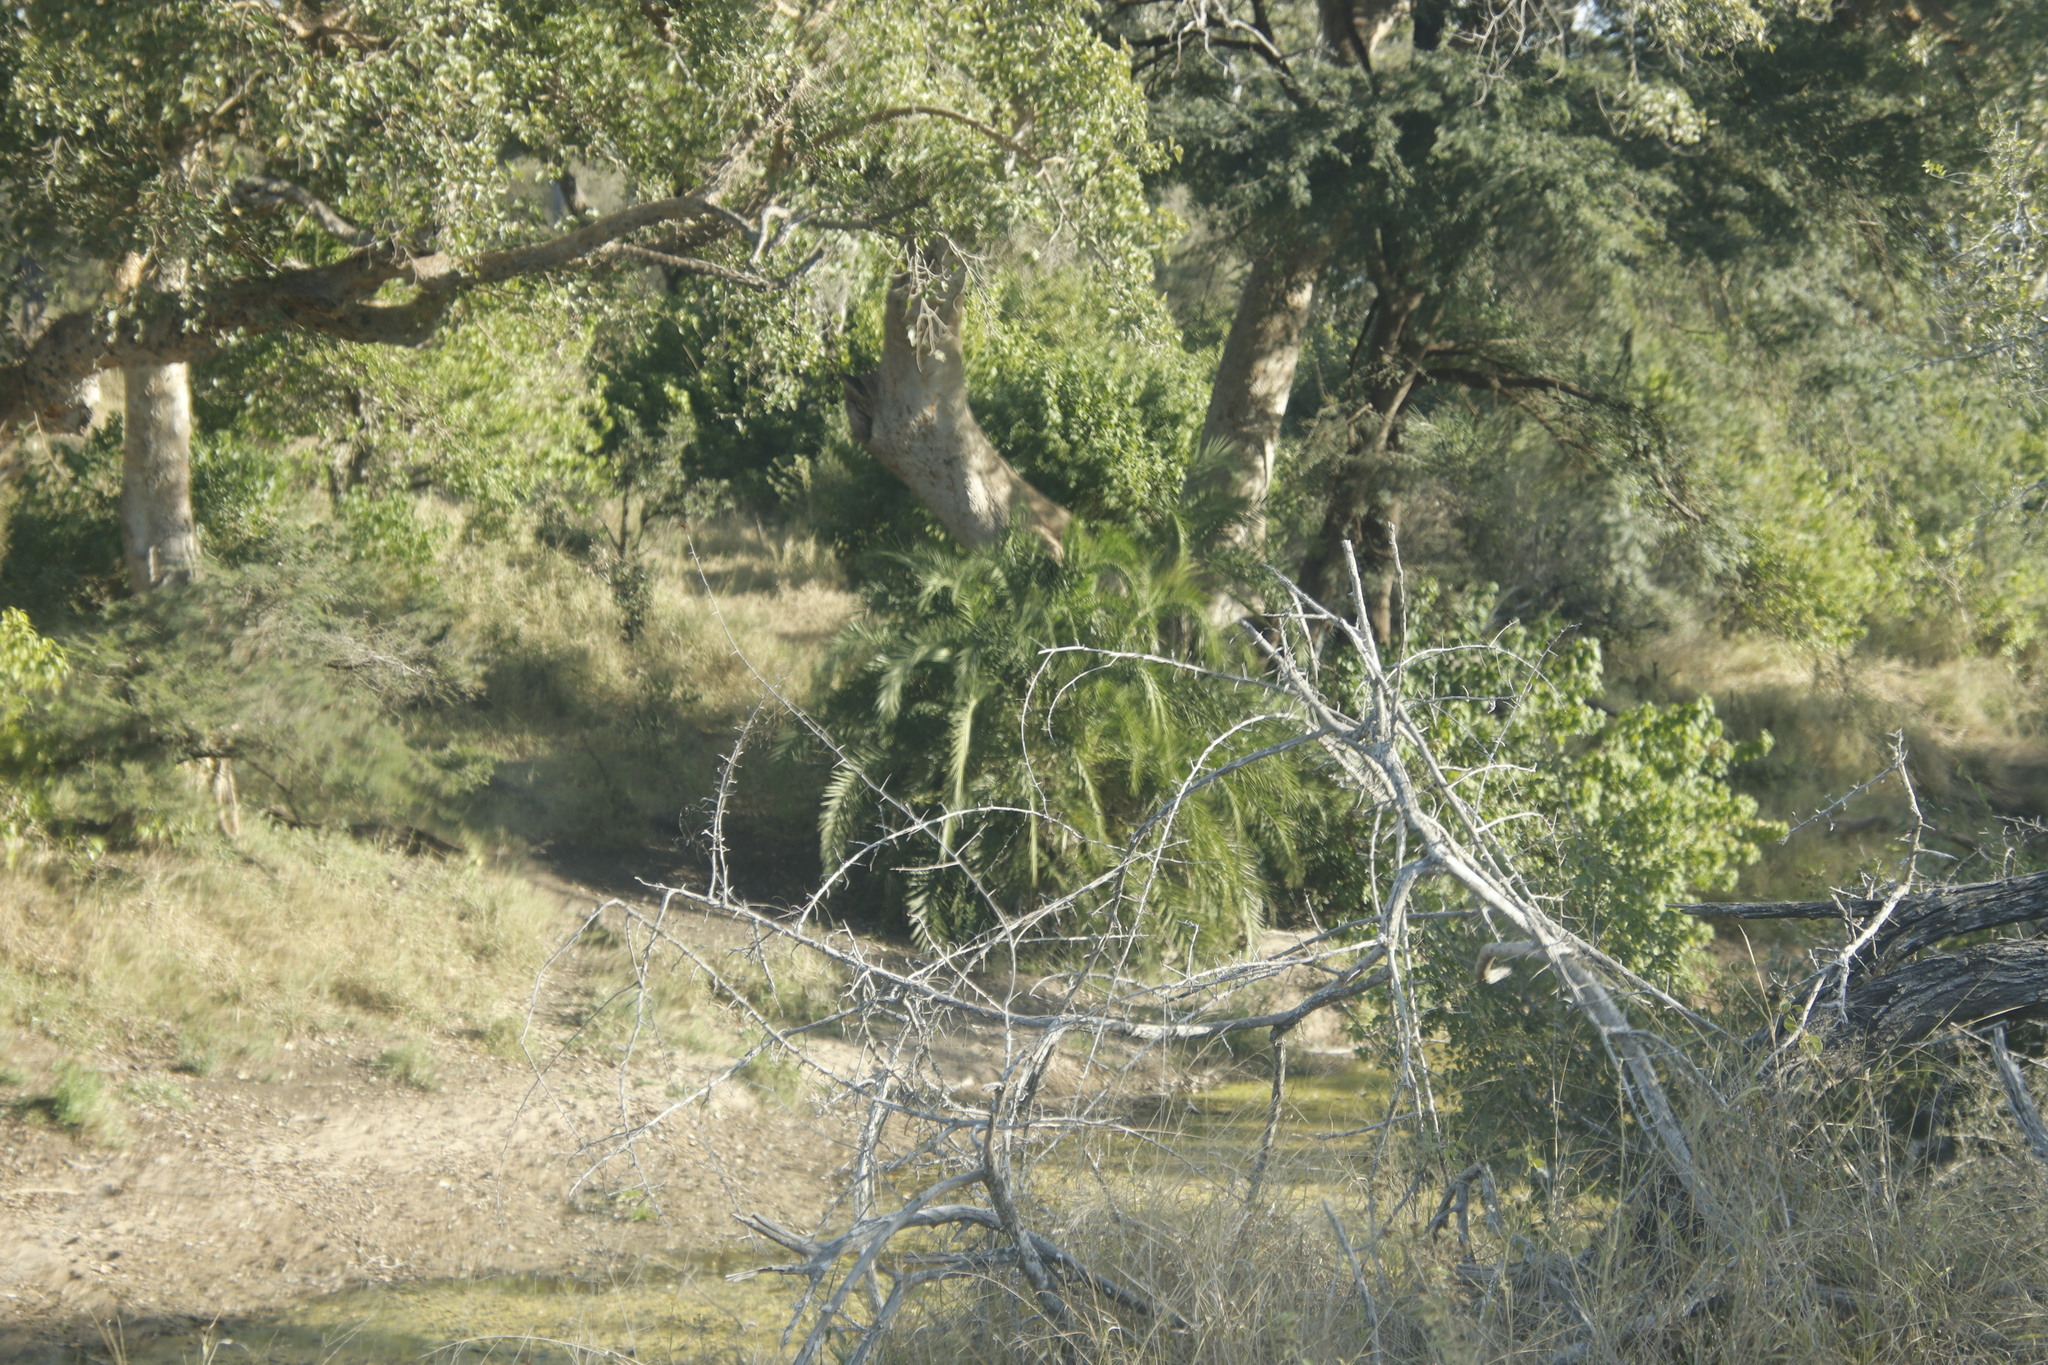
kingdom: Plantae
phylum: Tracheophyta
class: Liliopsida
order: Arecales
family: Arecaceae
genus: Phoenix
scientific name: Phoenix reclinata
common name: Senegal date palm
